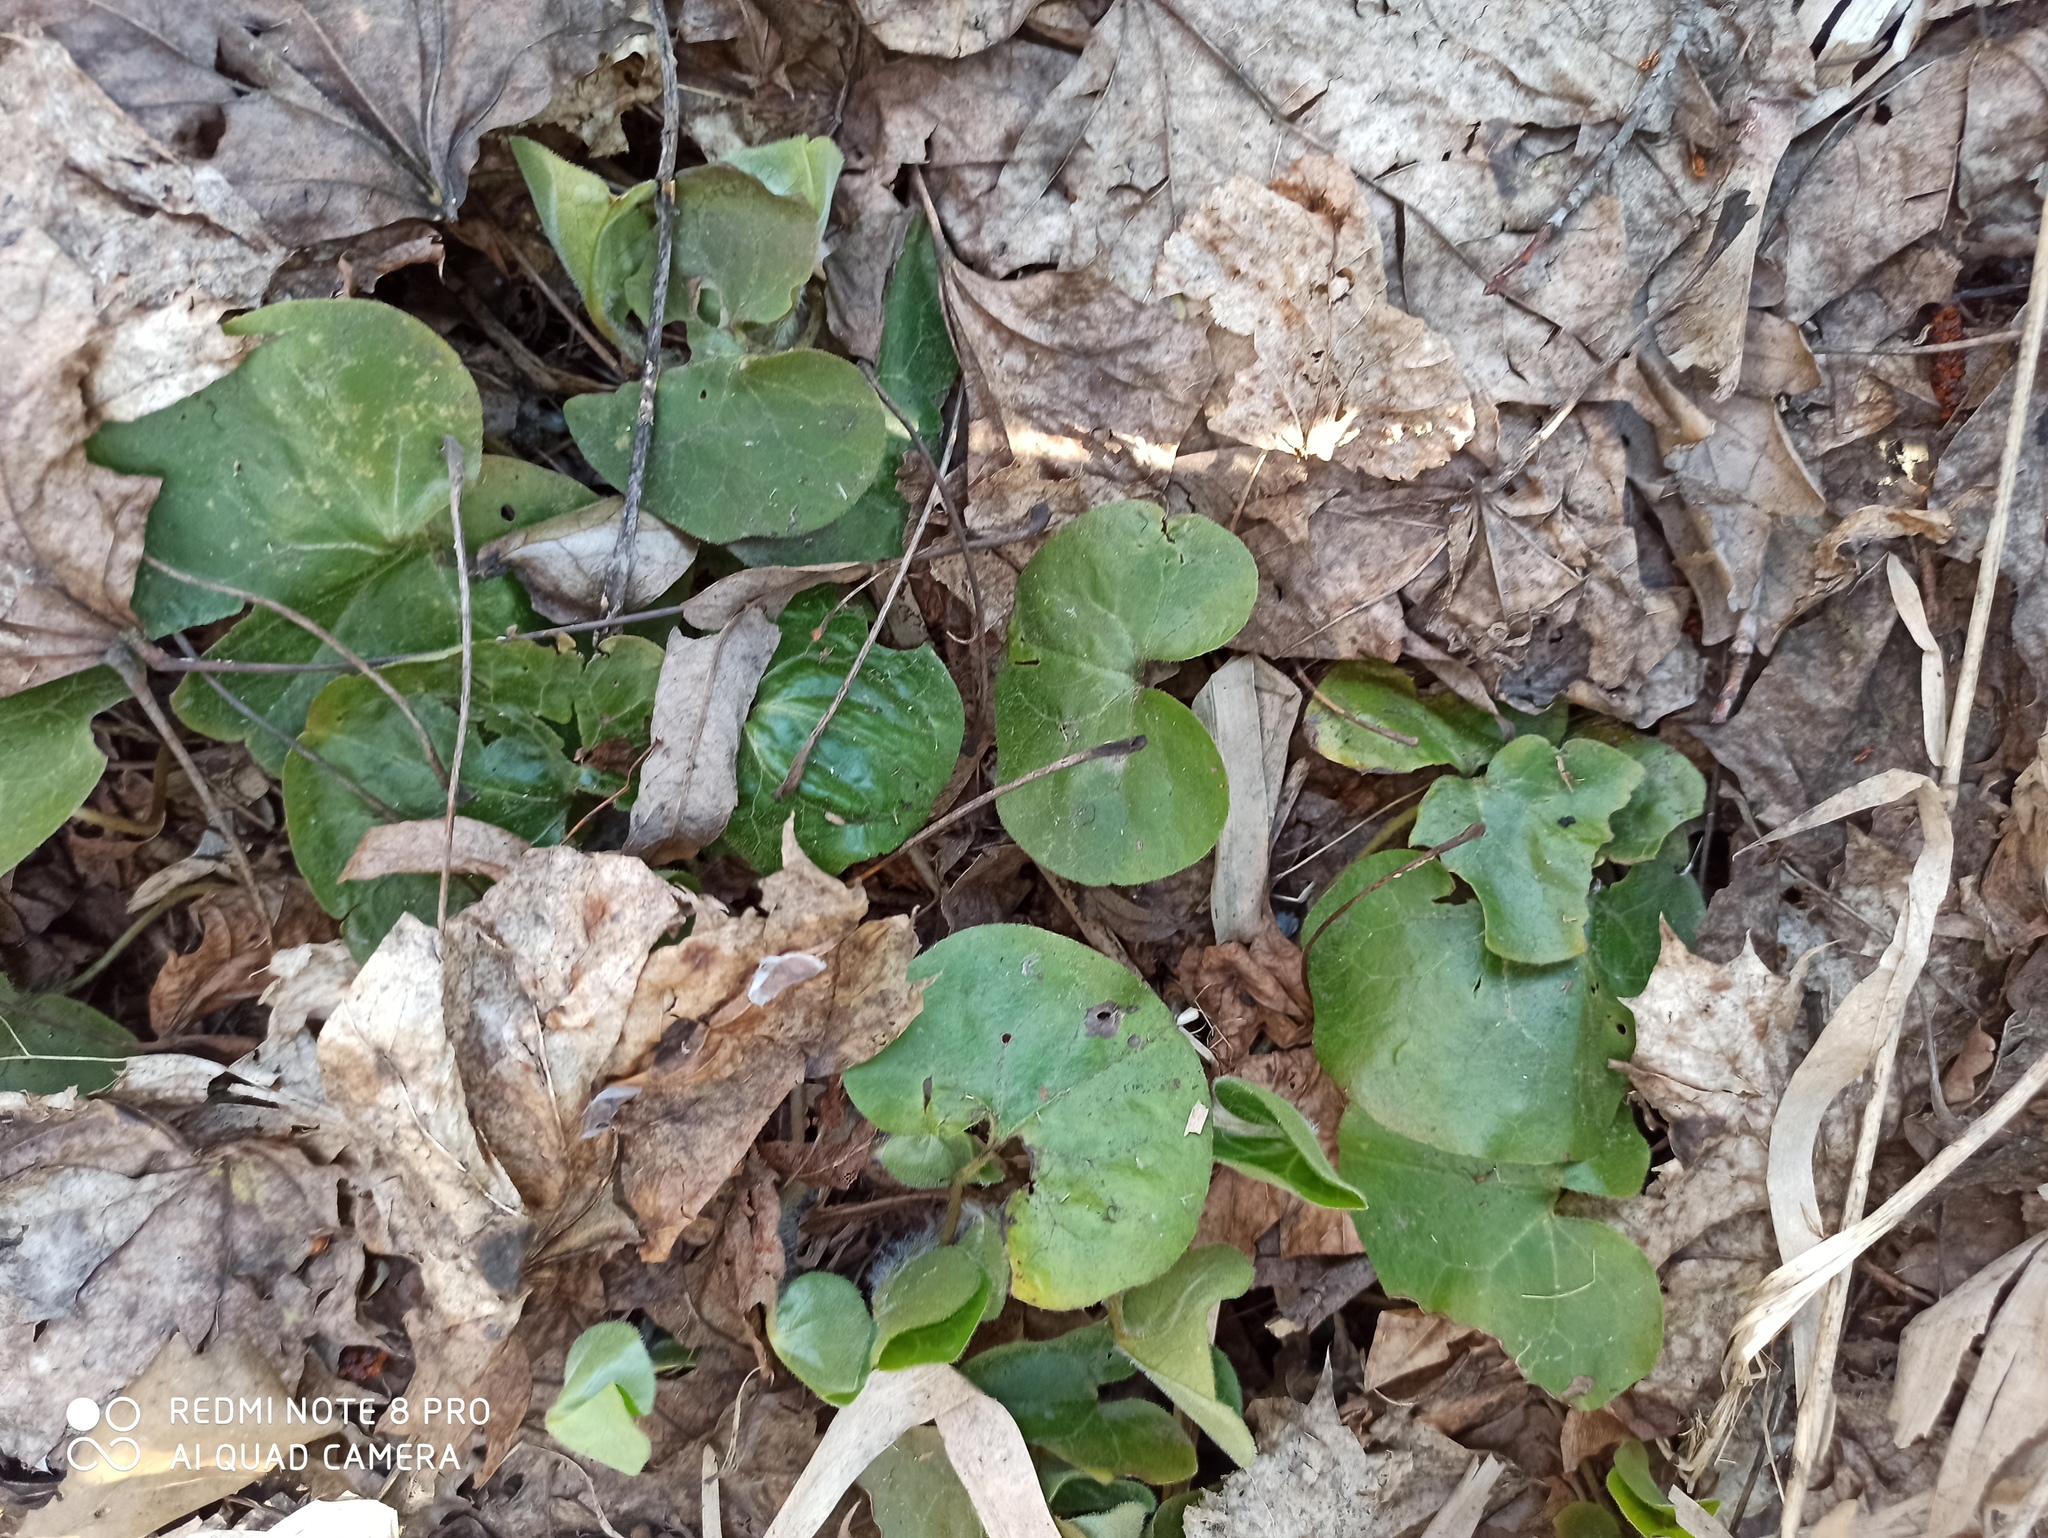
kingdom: Plantae
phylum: Tracheophyta
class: Magnoliopsida
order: Piperales
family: Aristolochiaceae
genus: Asarum
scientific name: Asarum europaeum
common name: Asarabacca
